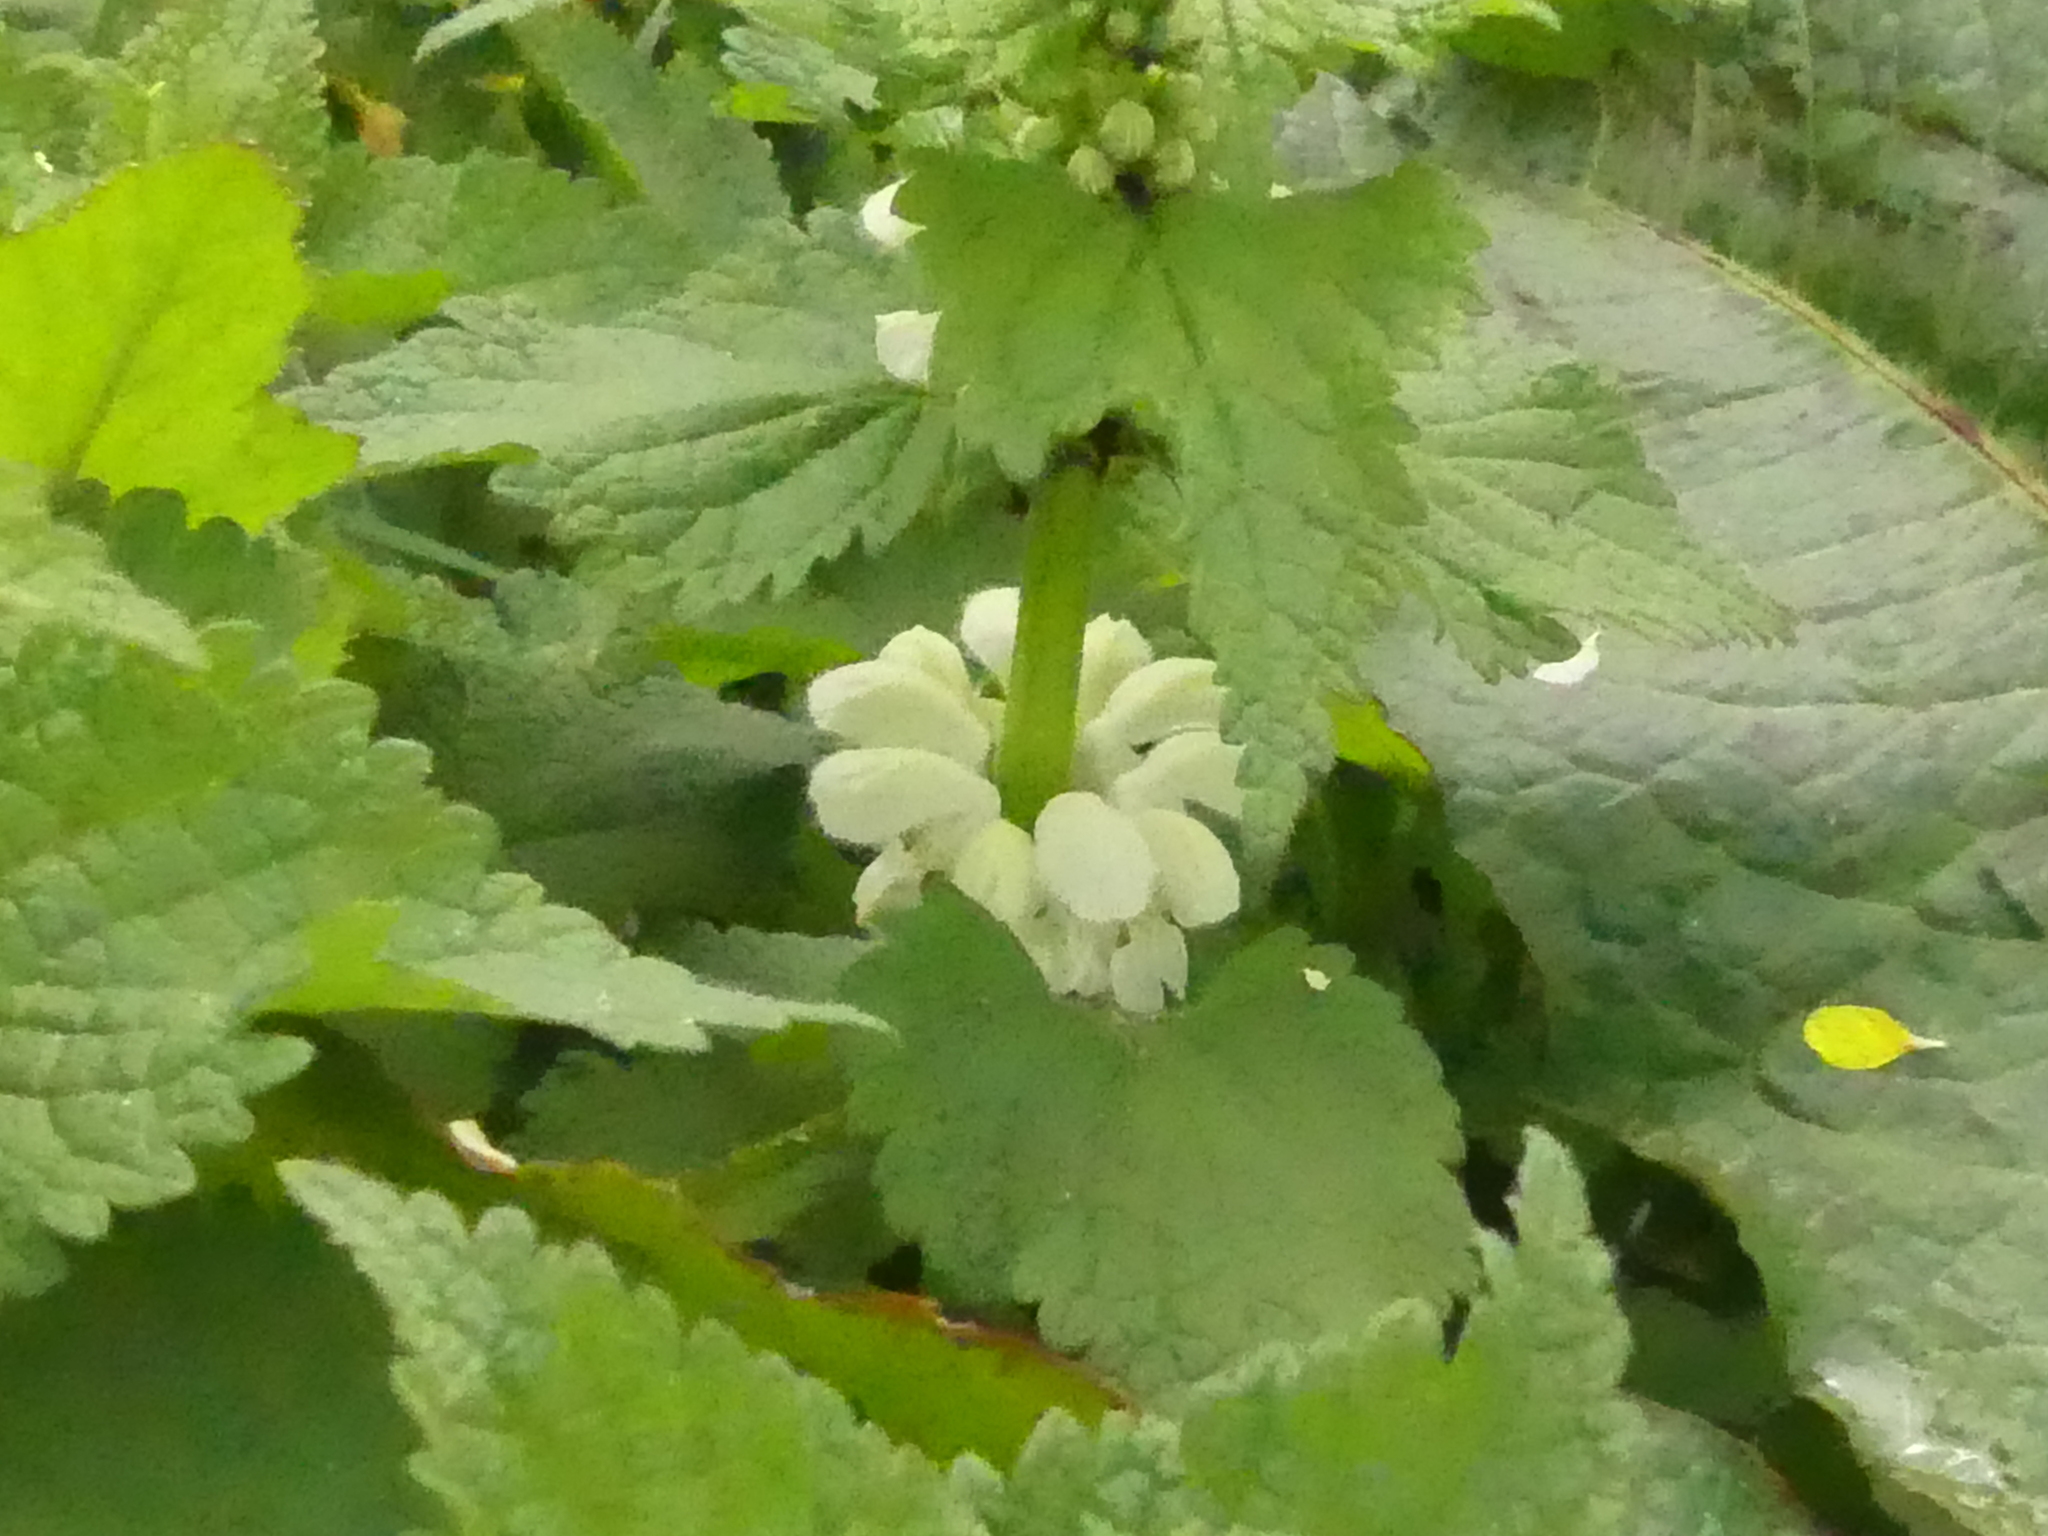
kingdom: Plantae
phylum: Tracheophyta
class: Magnoliopsida
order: Lamiales
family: Lamiaceae
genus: Lamium
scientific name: Lamium album
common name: White dead-nettle
